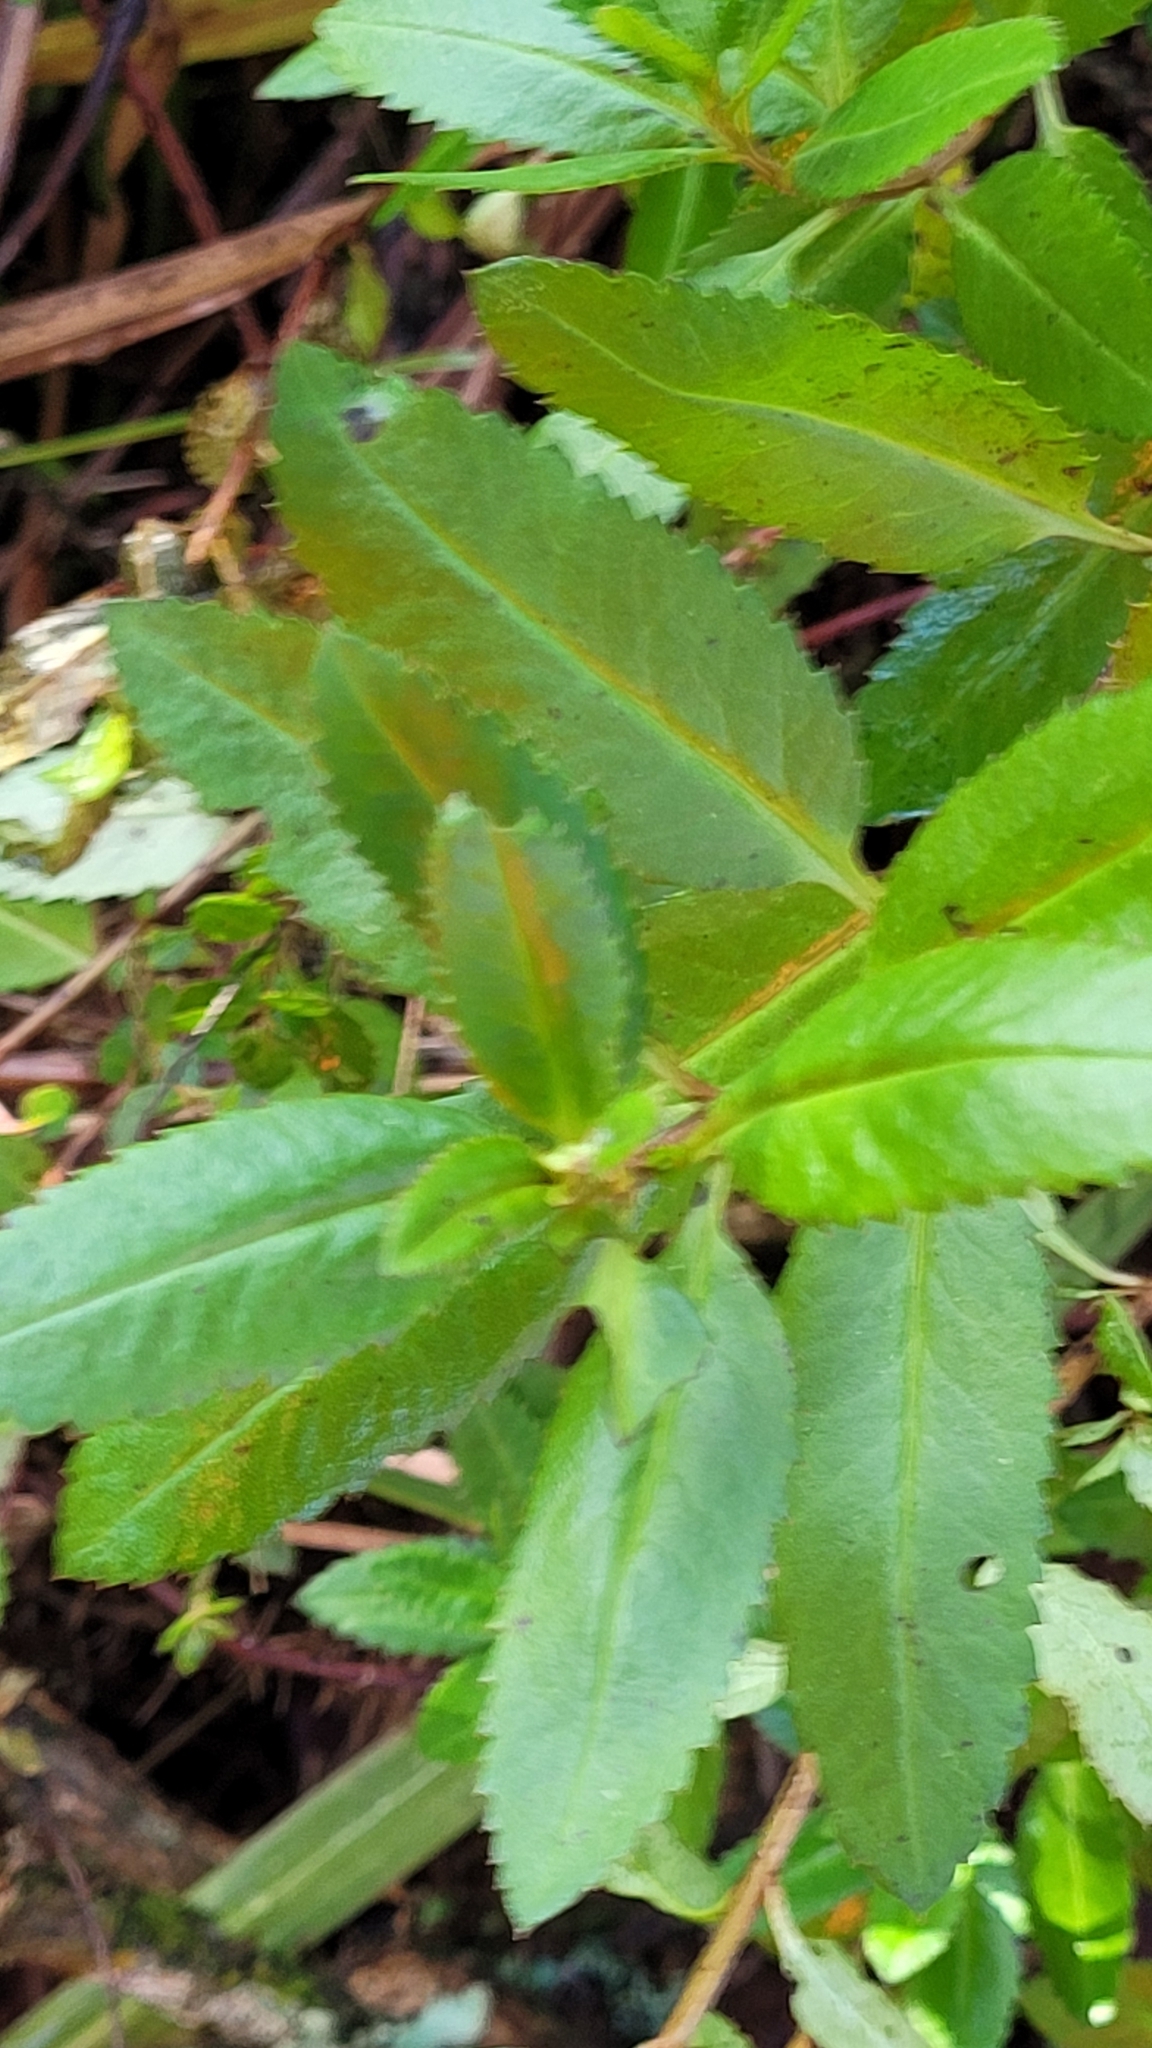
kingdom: Plantae
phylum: Tracheophyta
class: Magnoliopsida
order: Saxifragales
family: Haloragaceae
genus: Haloragis
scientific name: Haloragis erecta
